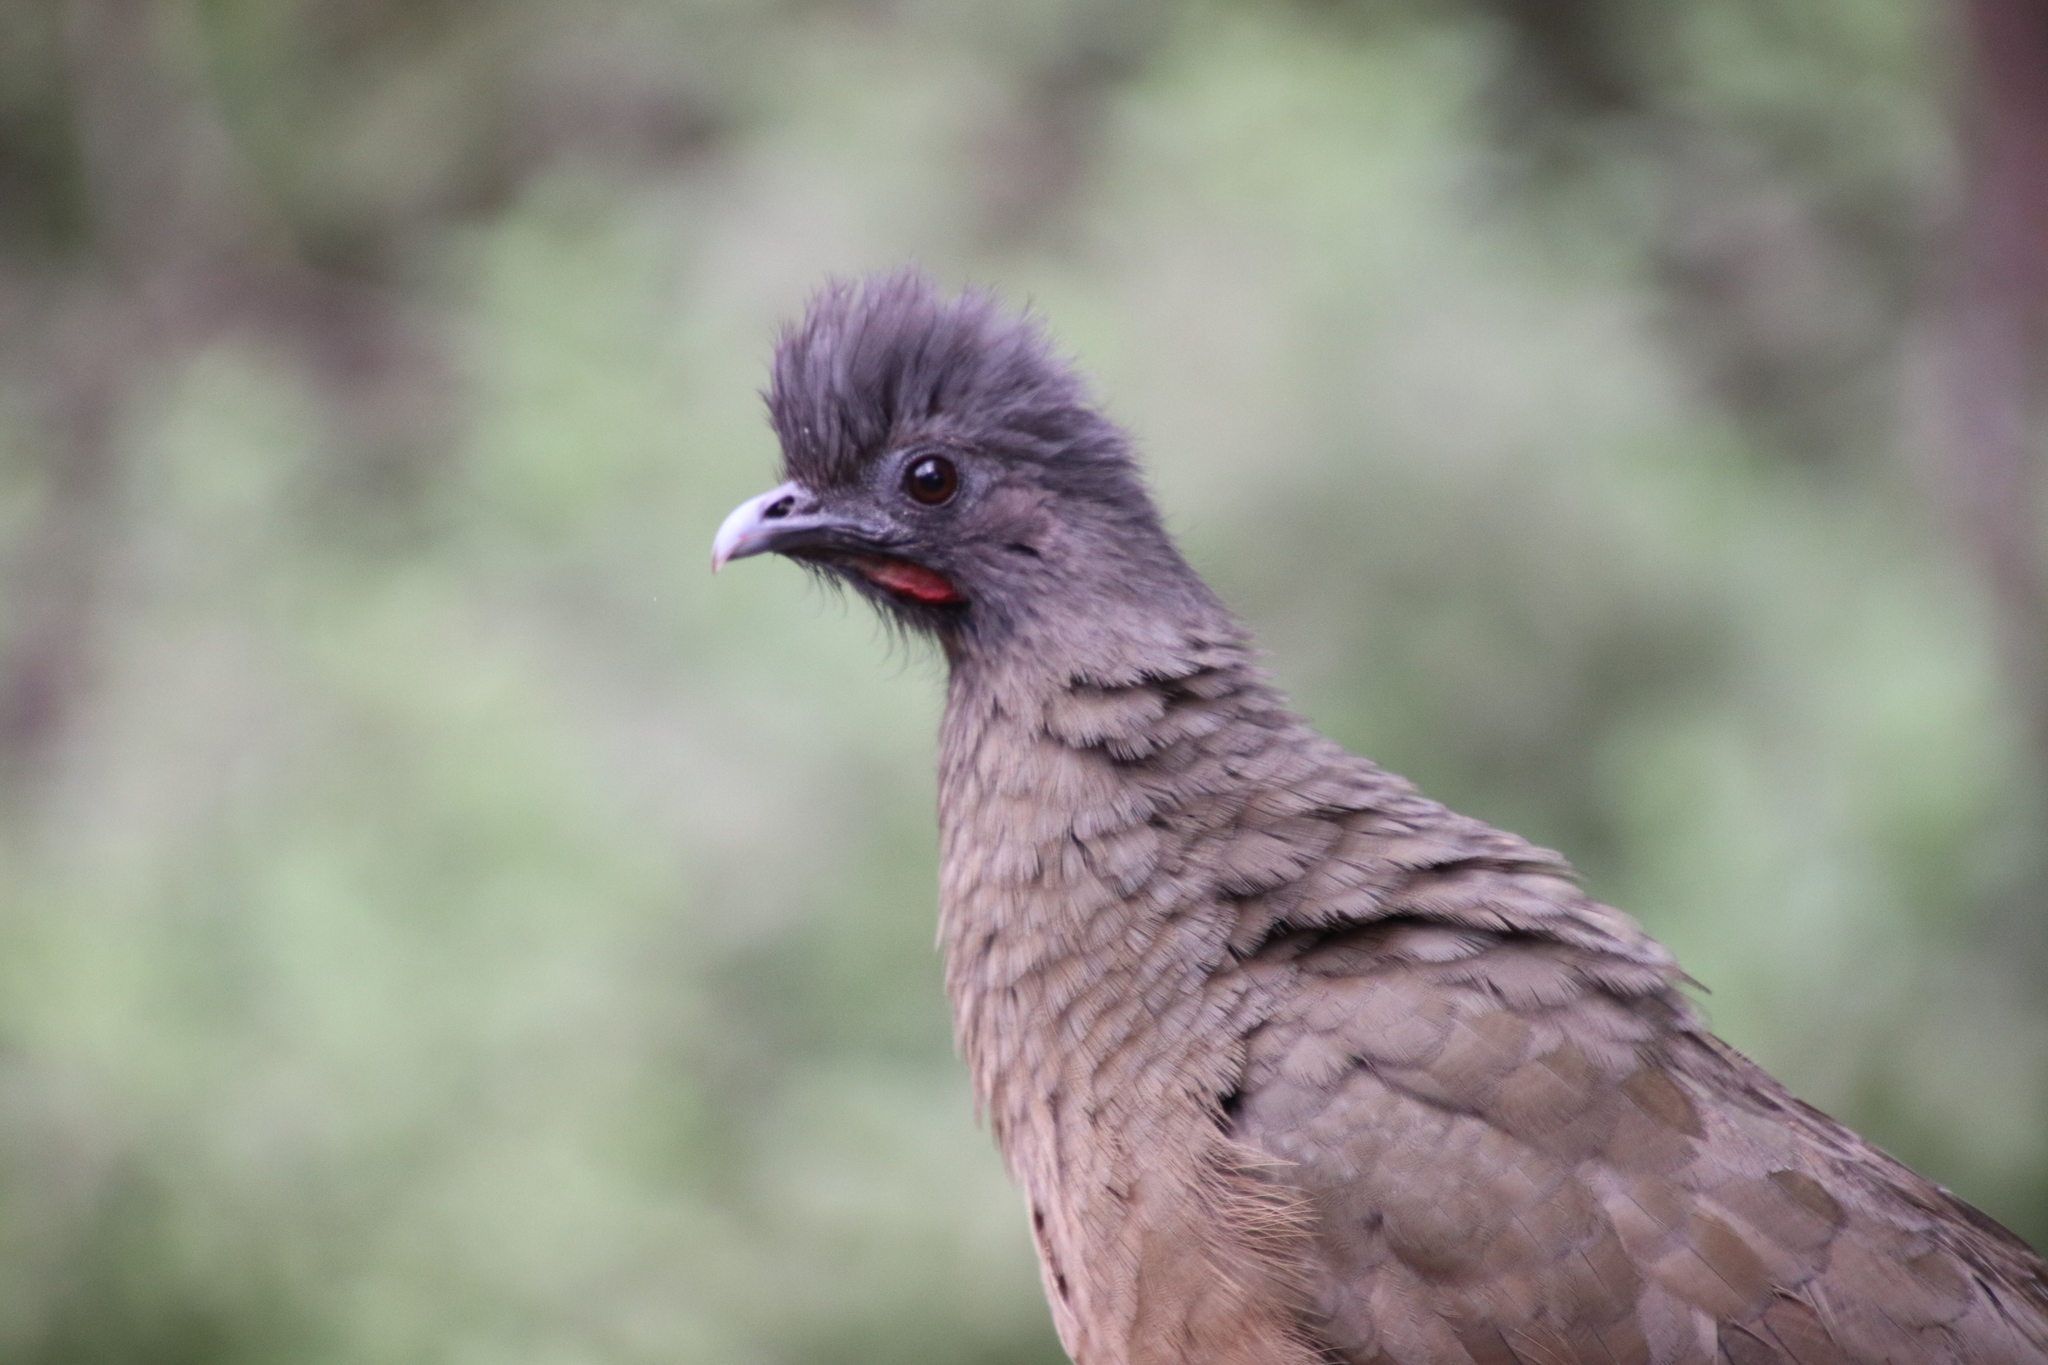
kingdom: Animalia
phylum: Chordata
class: Aves
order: Galliformes
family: Cracidae
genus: Ortalis
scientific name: Ortalis vetula
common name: Plain chachalaca
